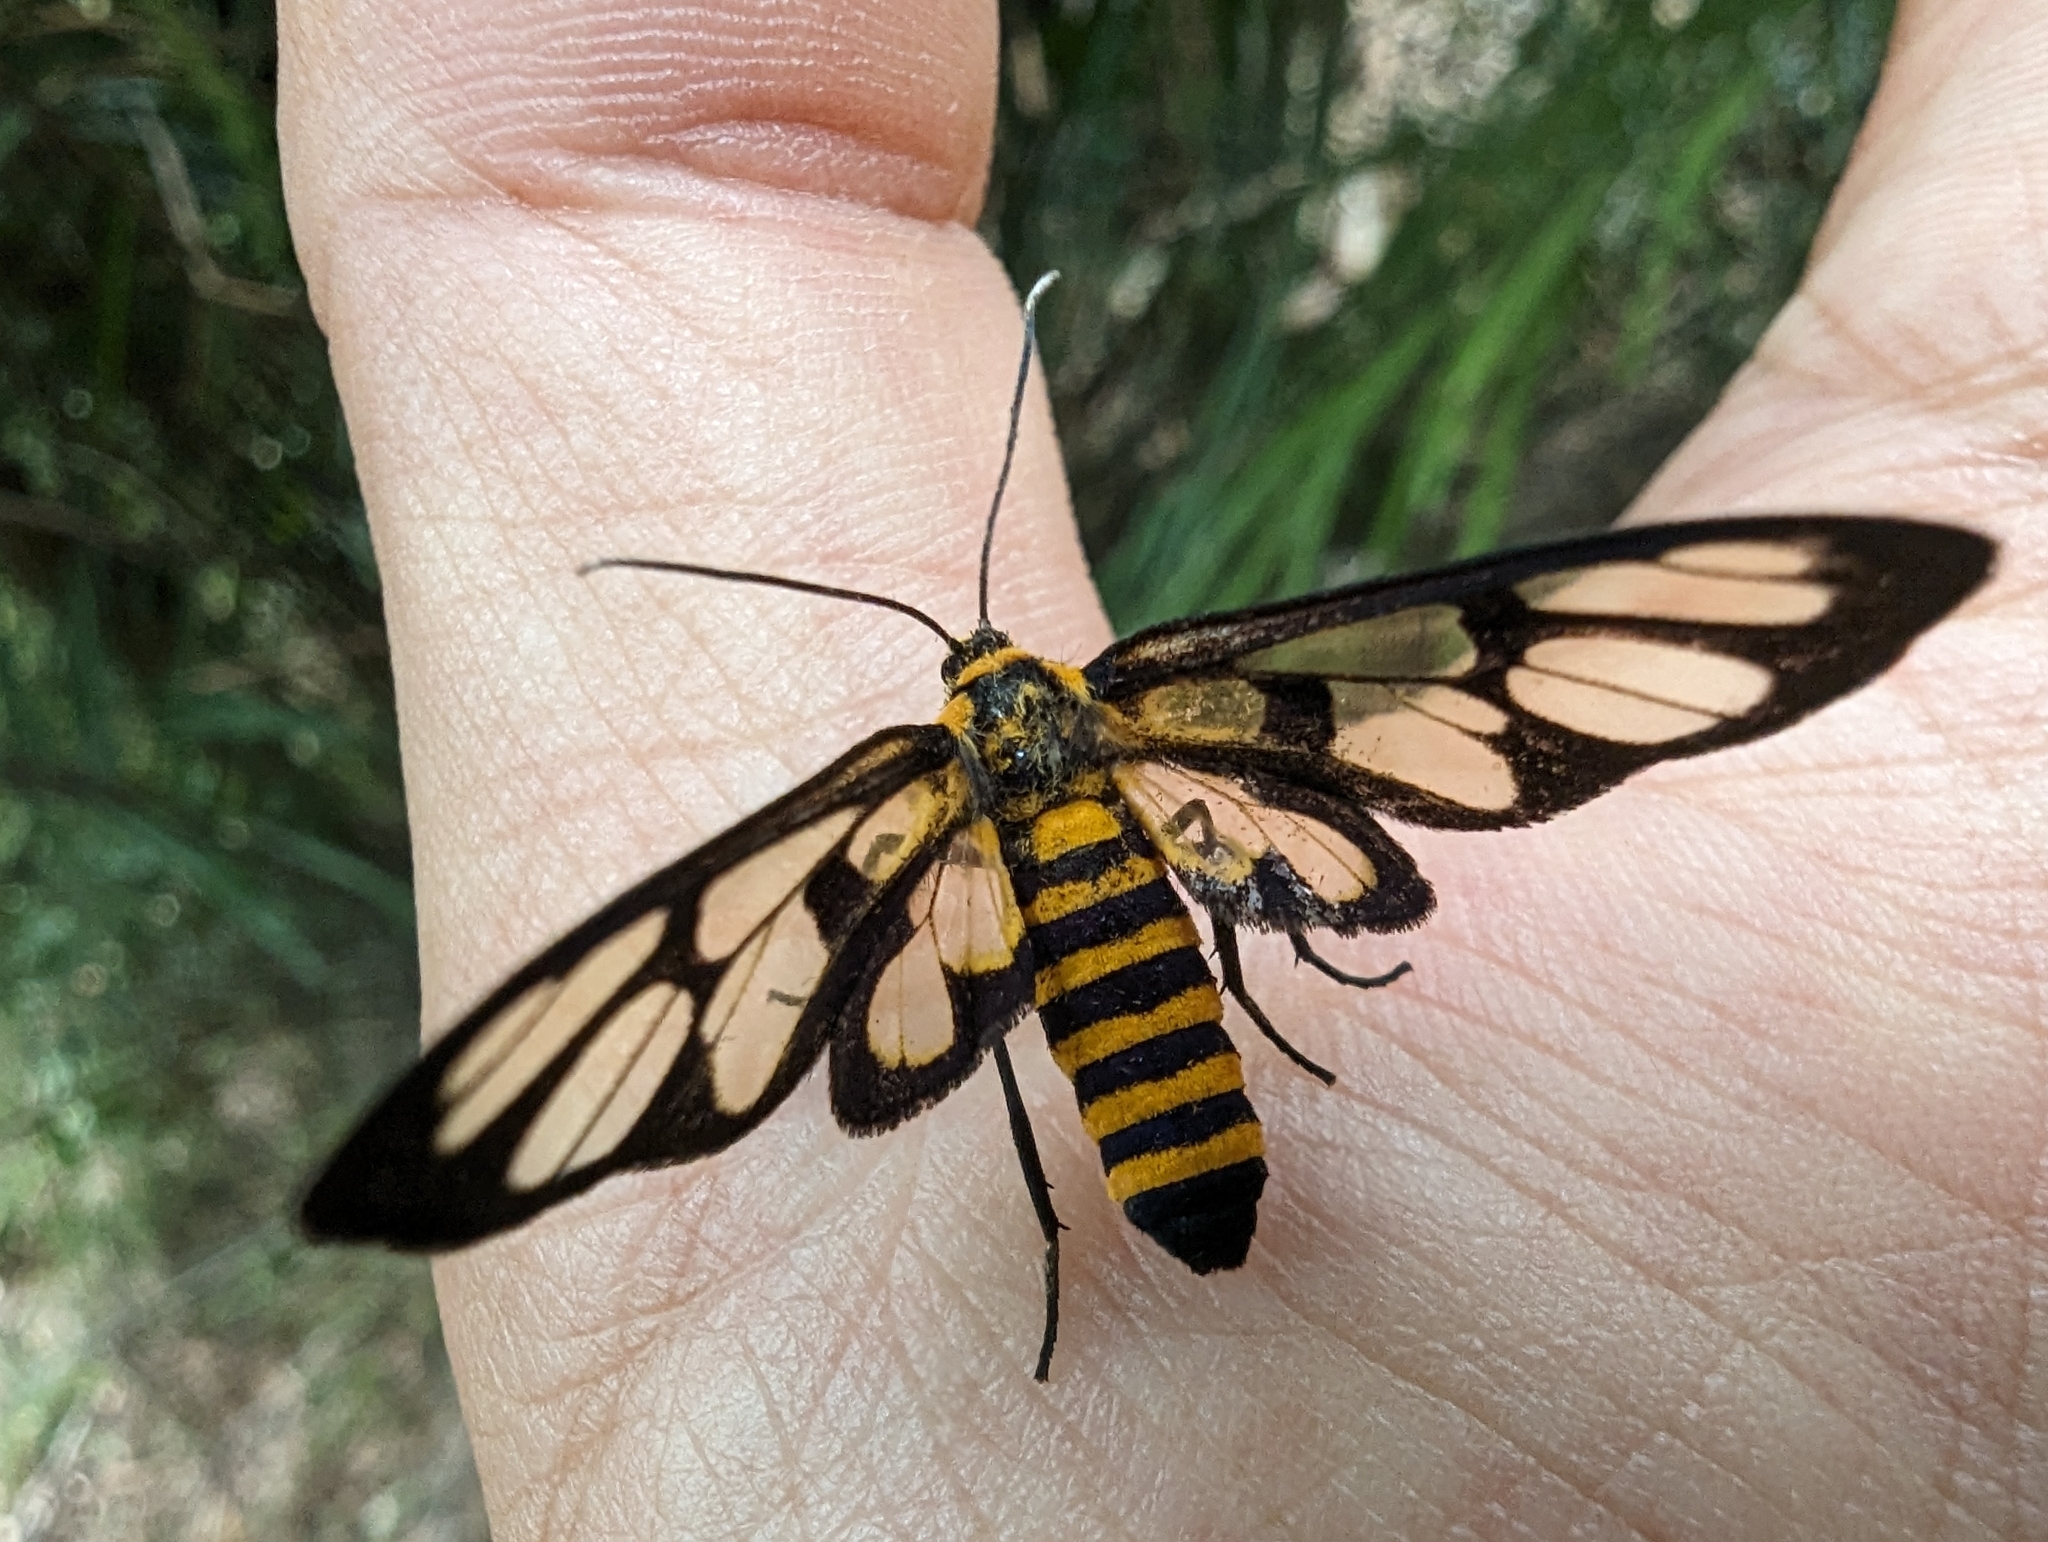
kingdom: Animalia
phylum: Arthropoda
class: Insecta
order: Lepidoptera
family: Erebidae
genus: Amata
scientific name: Amata persimilis
